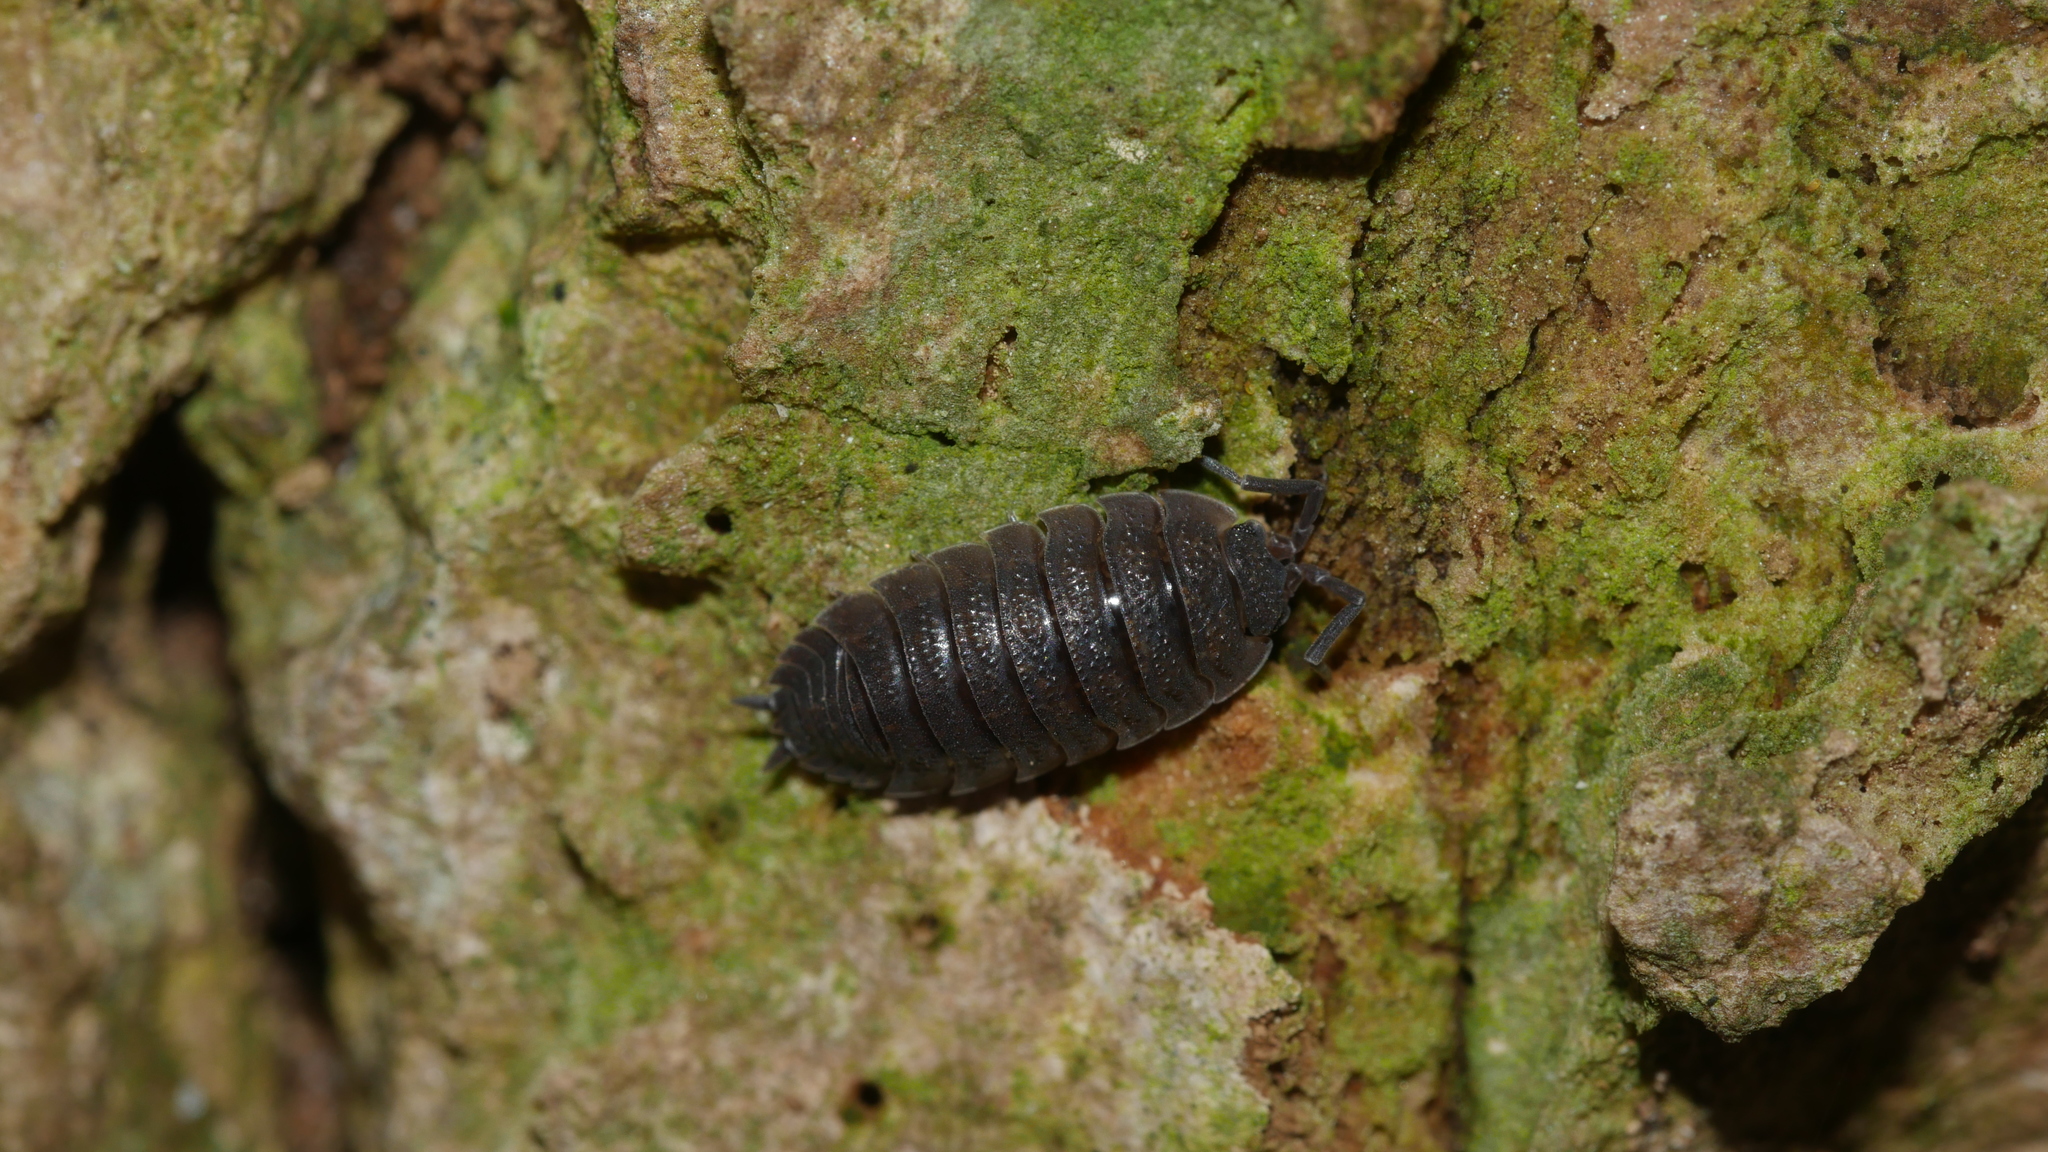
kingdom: Animalia
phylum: Arthropoda
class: Malacostraca
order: Isopoda
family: Porcellionidae
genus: Porcellio
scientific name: Porcellio scaber
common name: Common rough woodlouse
